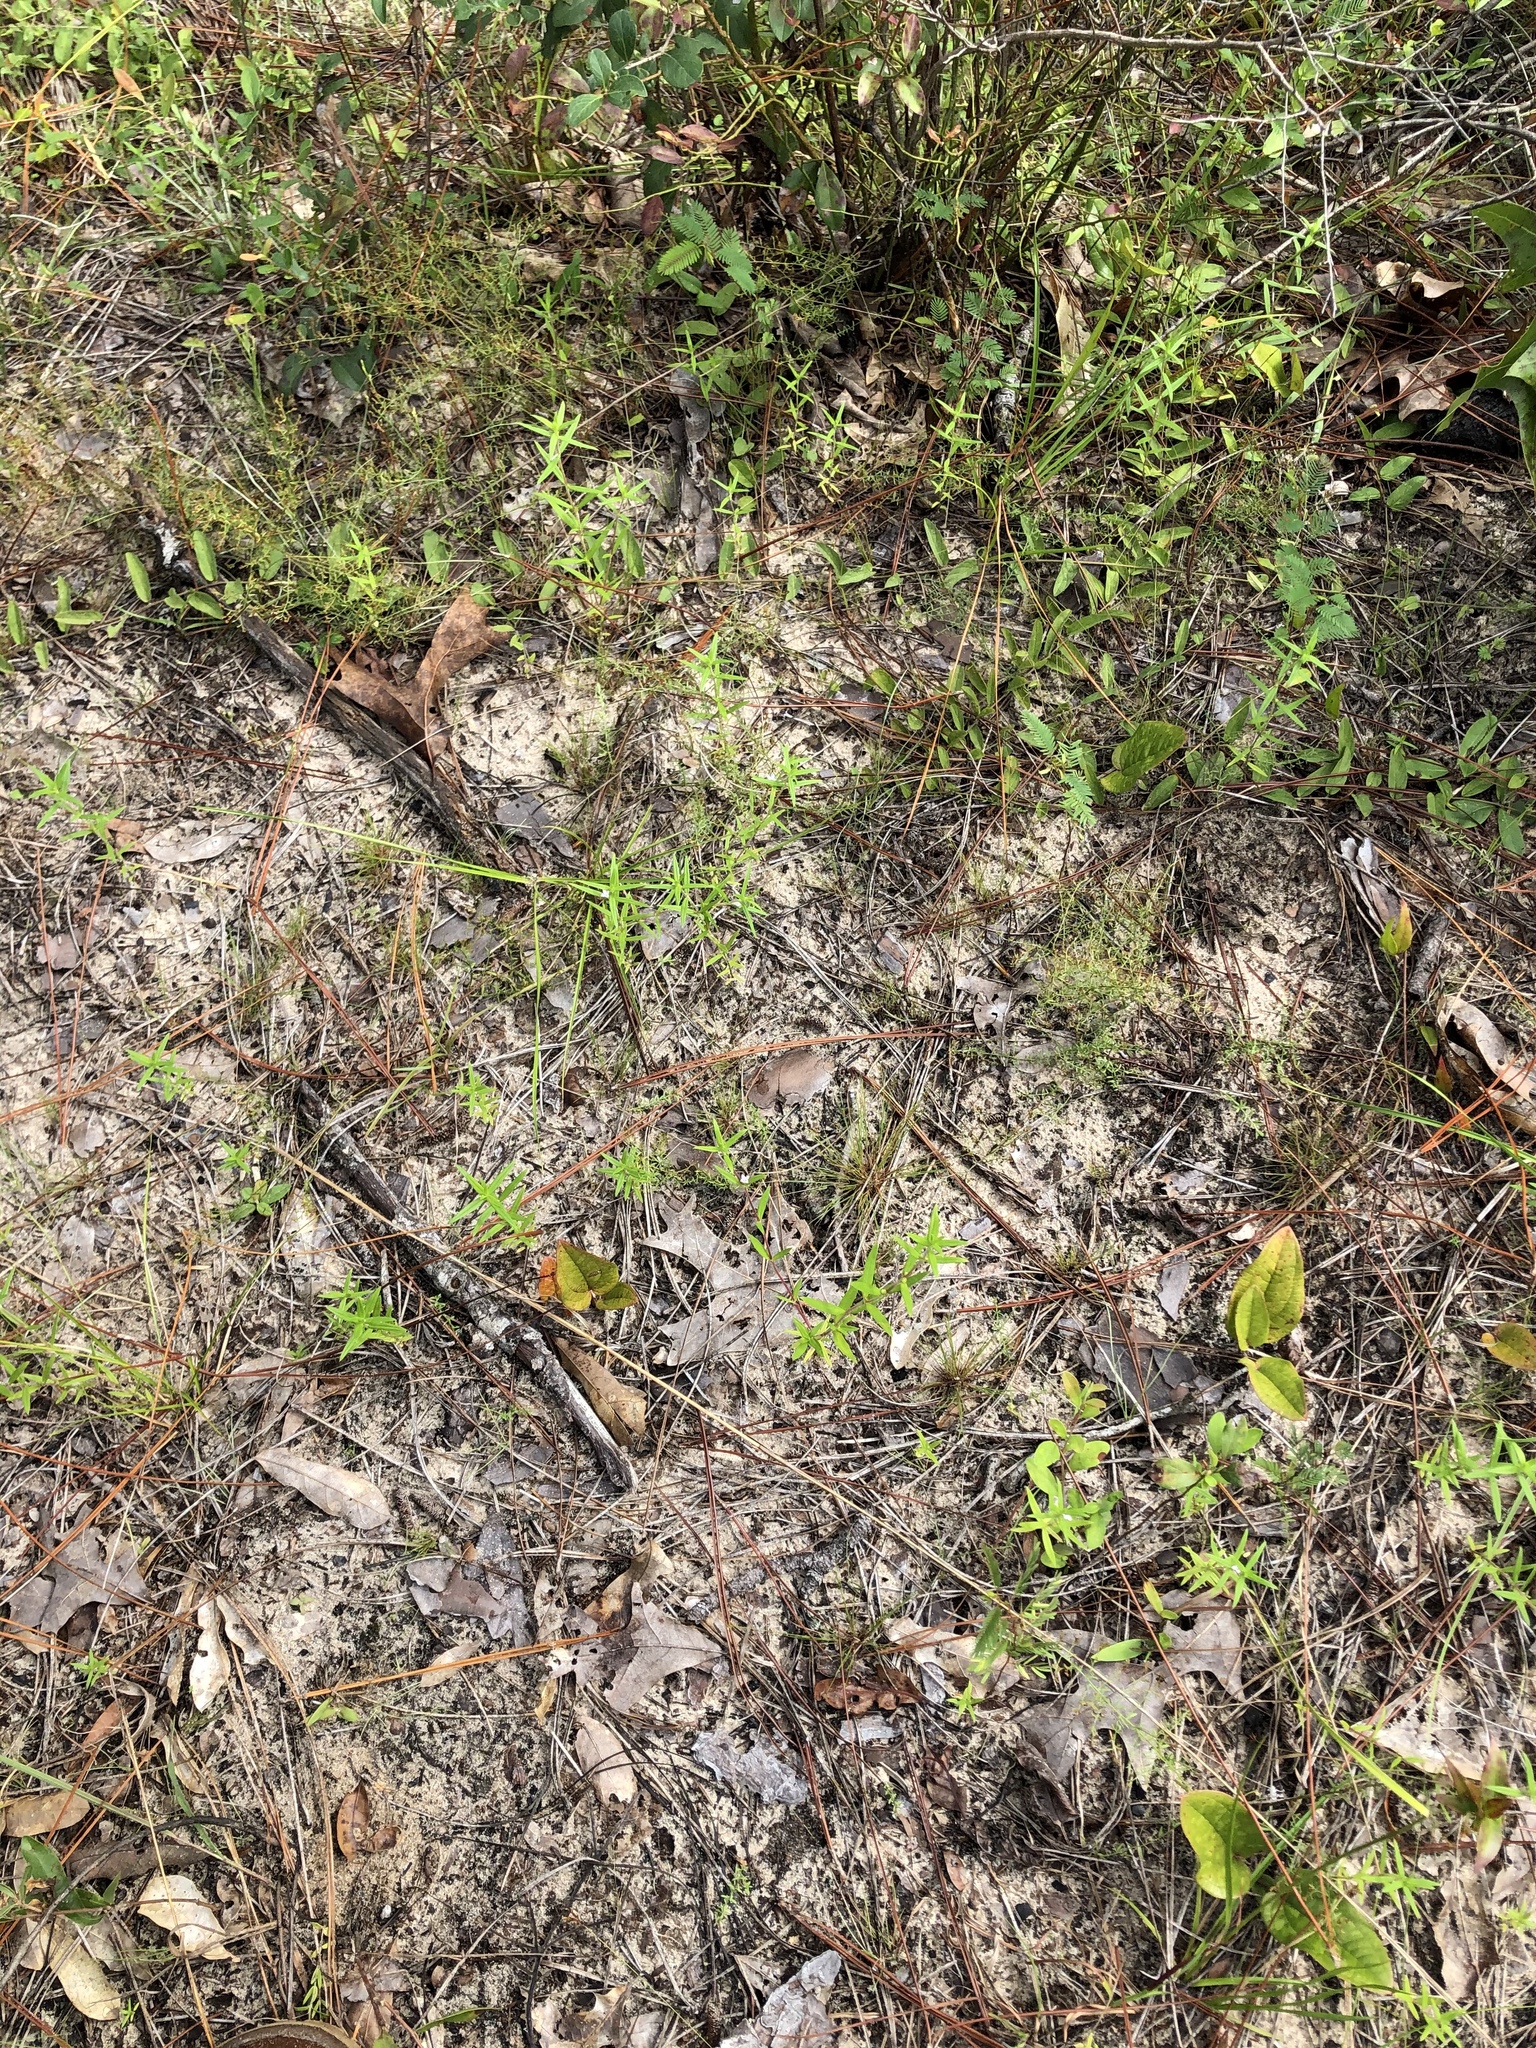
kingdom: Plantae
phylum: Tracheophyta
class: Magnoliopsida
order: Gentianales
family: Rubiaceae
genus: Hexasepalum
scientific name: Hexasepalum teres
